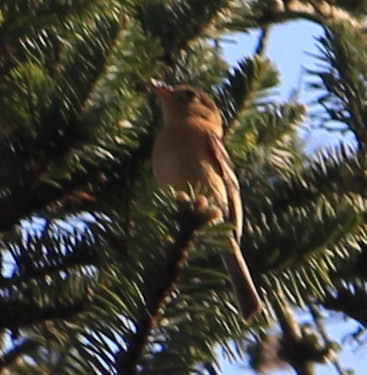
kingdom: Animalia
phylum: Chordata
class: Aves
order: Passeriformes
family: Tyrannidae
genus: Empidonax
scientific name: Empidonax fulvifrons
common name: Buff-breasted flycatcher
